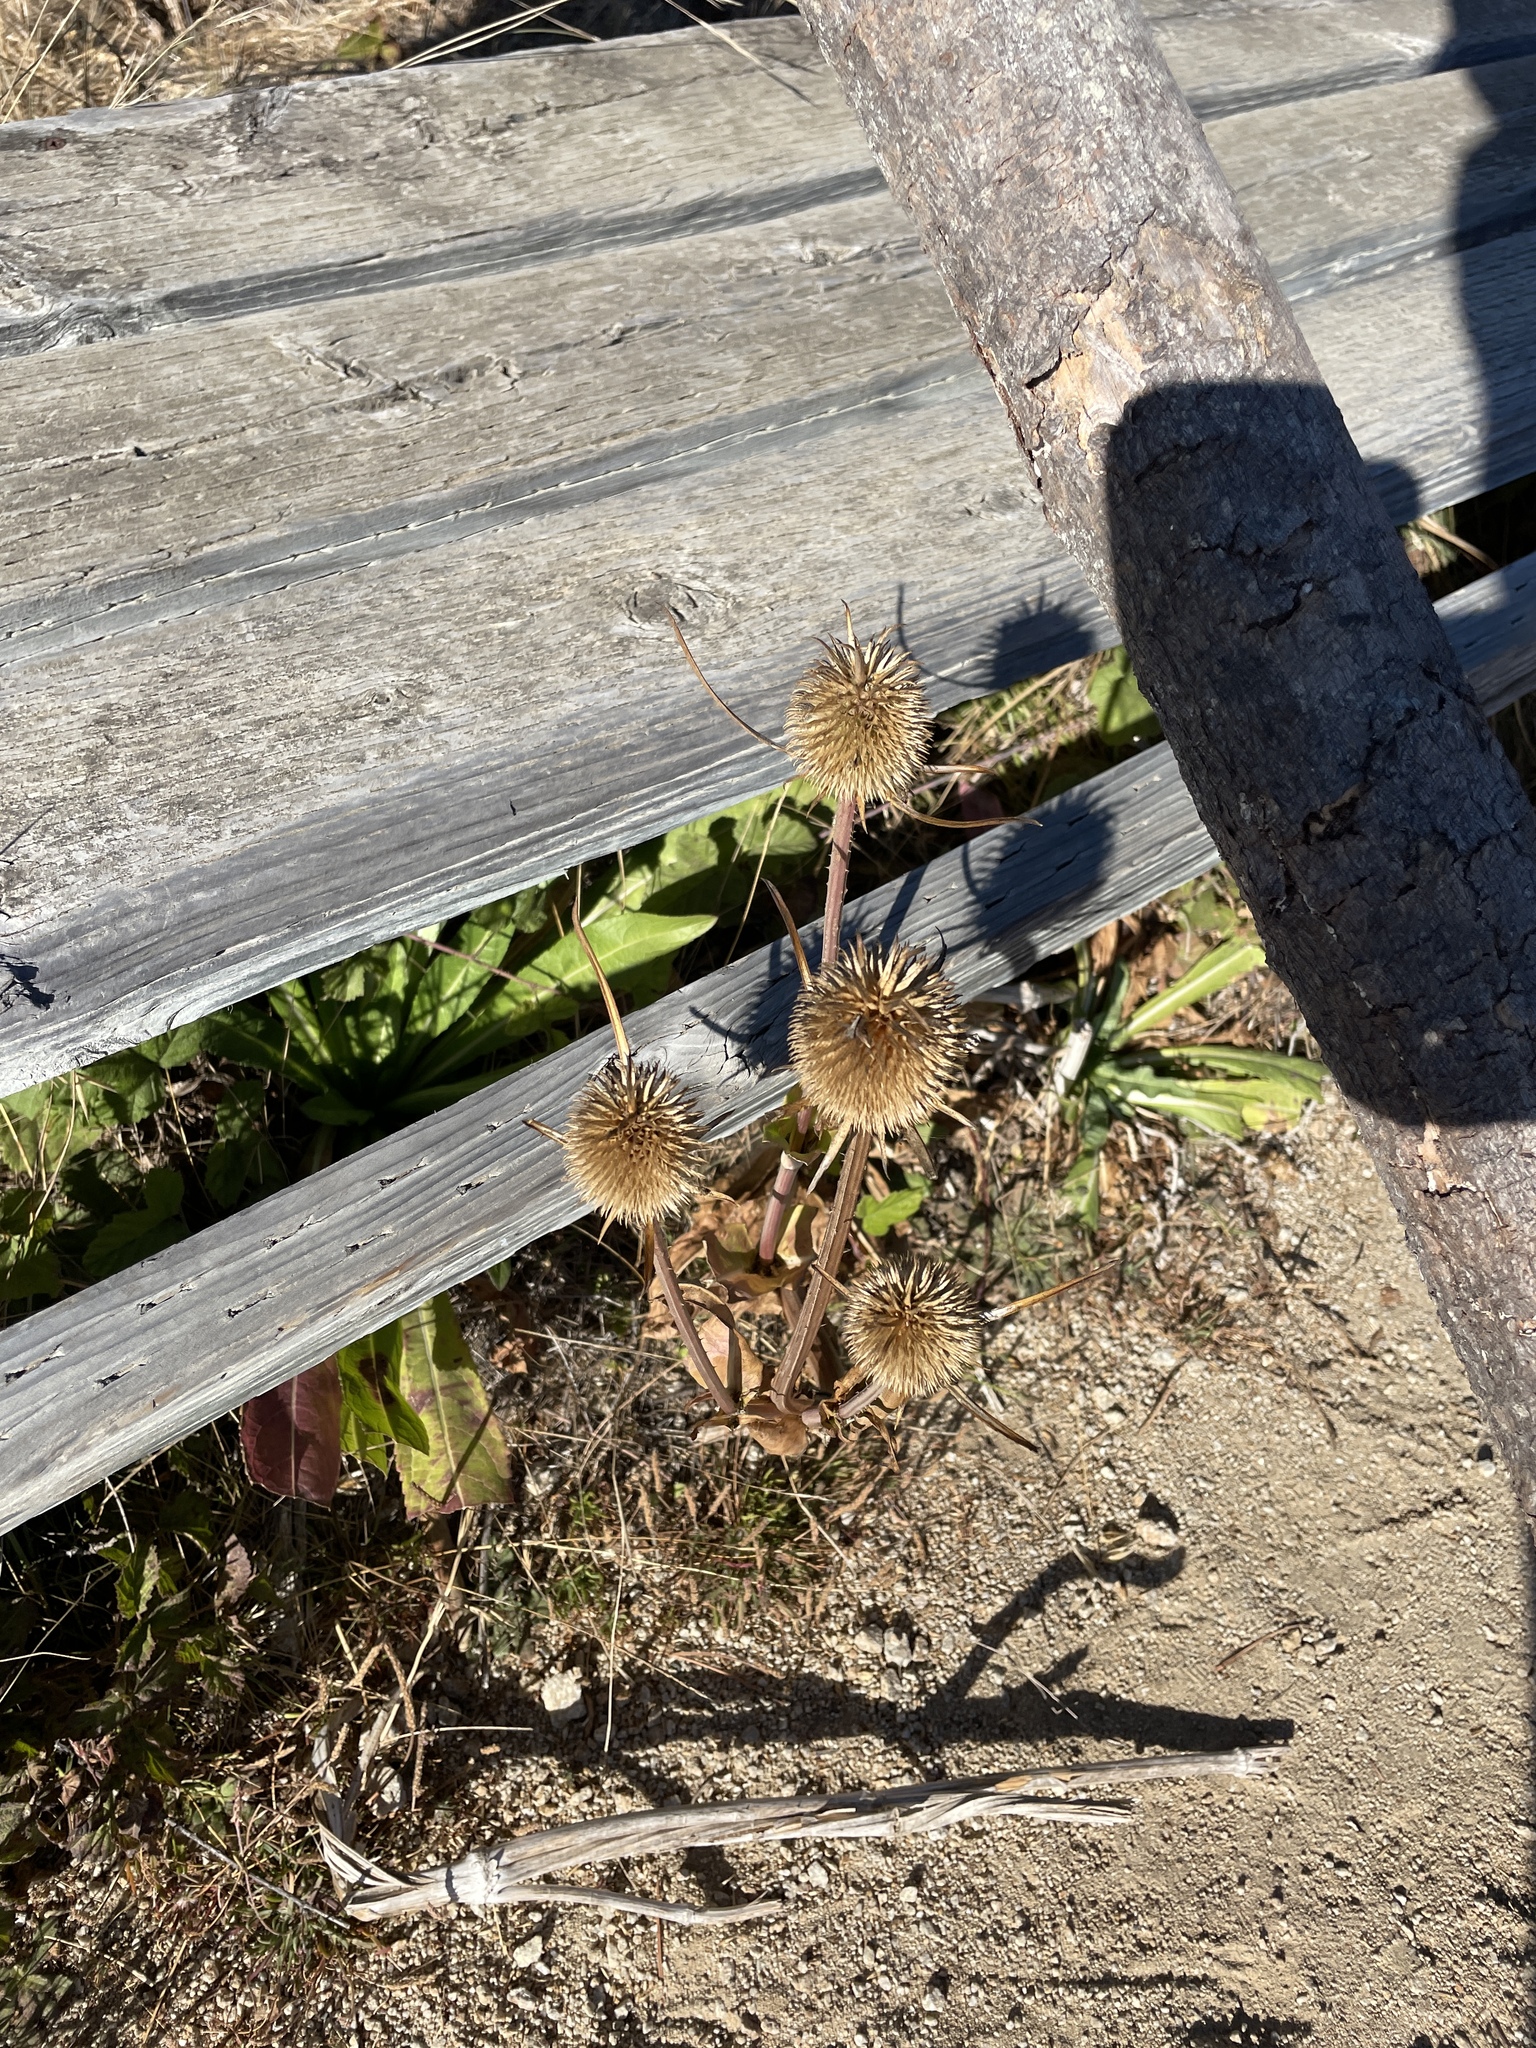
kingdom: Plantae
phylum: Tracheophyta
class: Magnoliopsida
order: Dipsacales
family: Caprifoliaceae
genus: Dipsacus
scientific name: Dipsacus sativus
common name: Fuller's teasel
